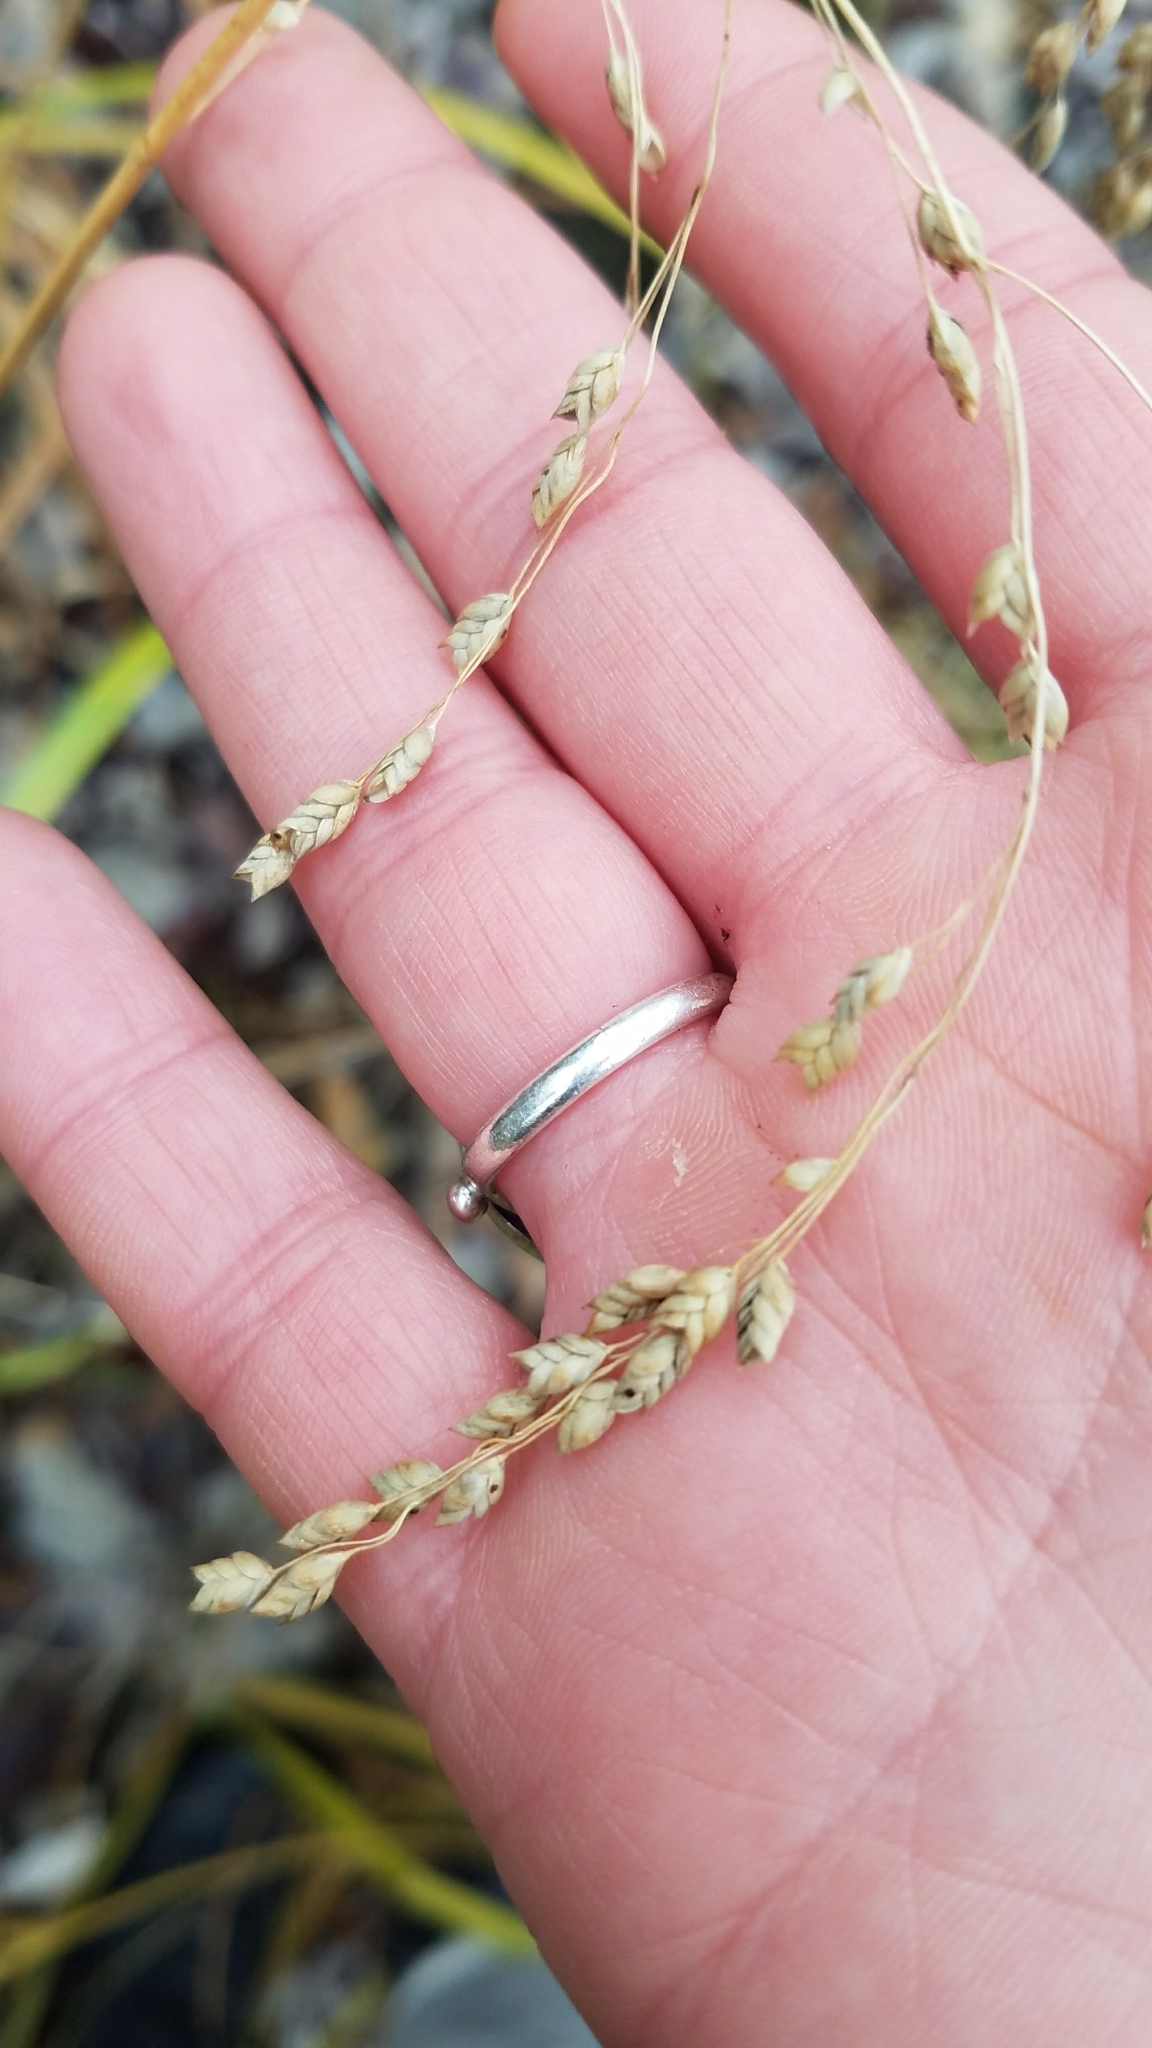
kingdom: Plantae
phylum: Tracheophyta
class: Liliopsida
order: Poales
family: Poaceae
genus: Glyceria
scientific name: Glyceria striata
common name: Fowl manna grass
